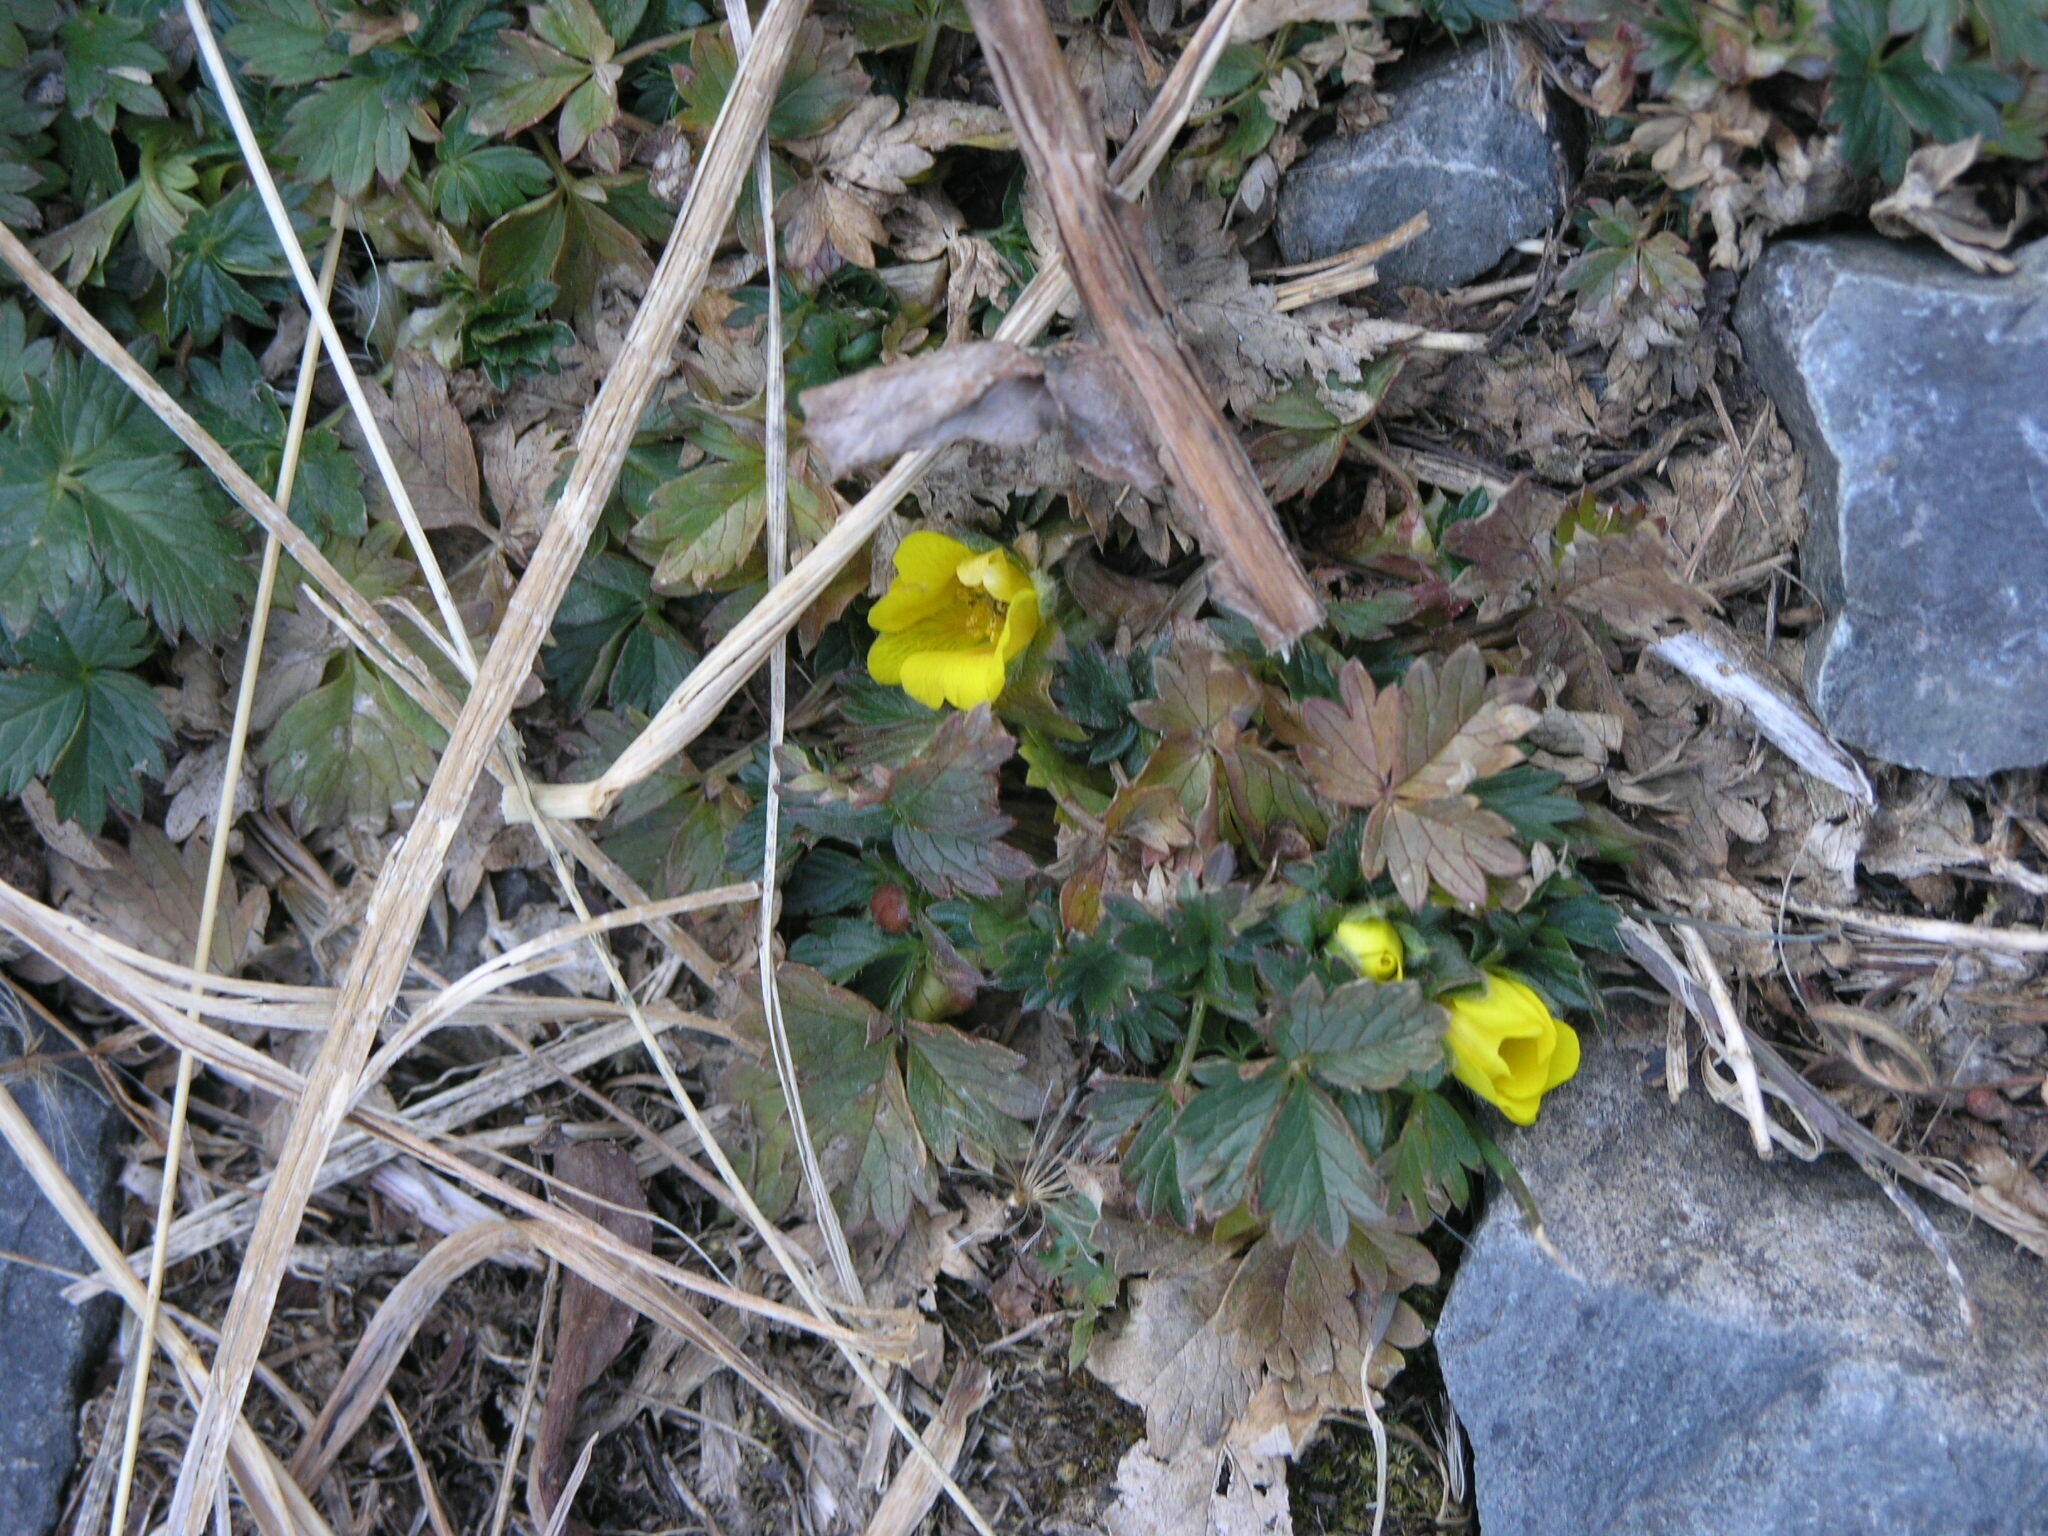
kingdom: Plantae
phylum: Tracheophyta
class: Magnoliopsida
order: Rosales
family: Rosaceae
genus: Potentilla
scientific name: Potentilla
